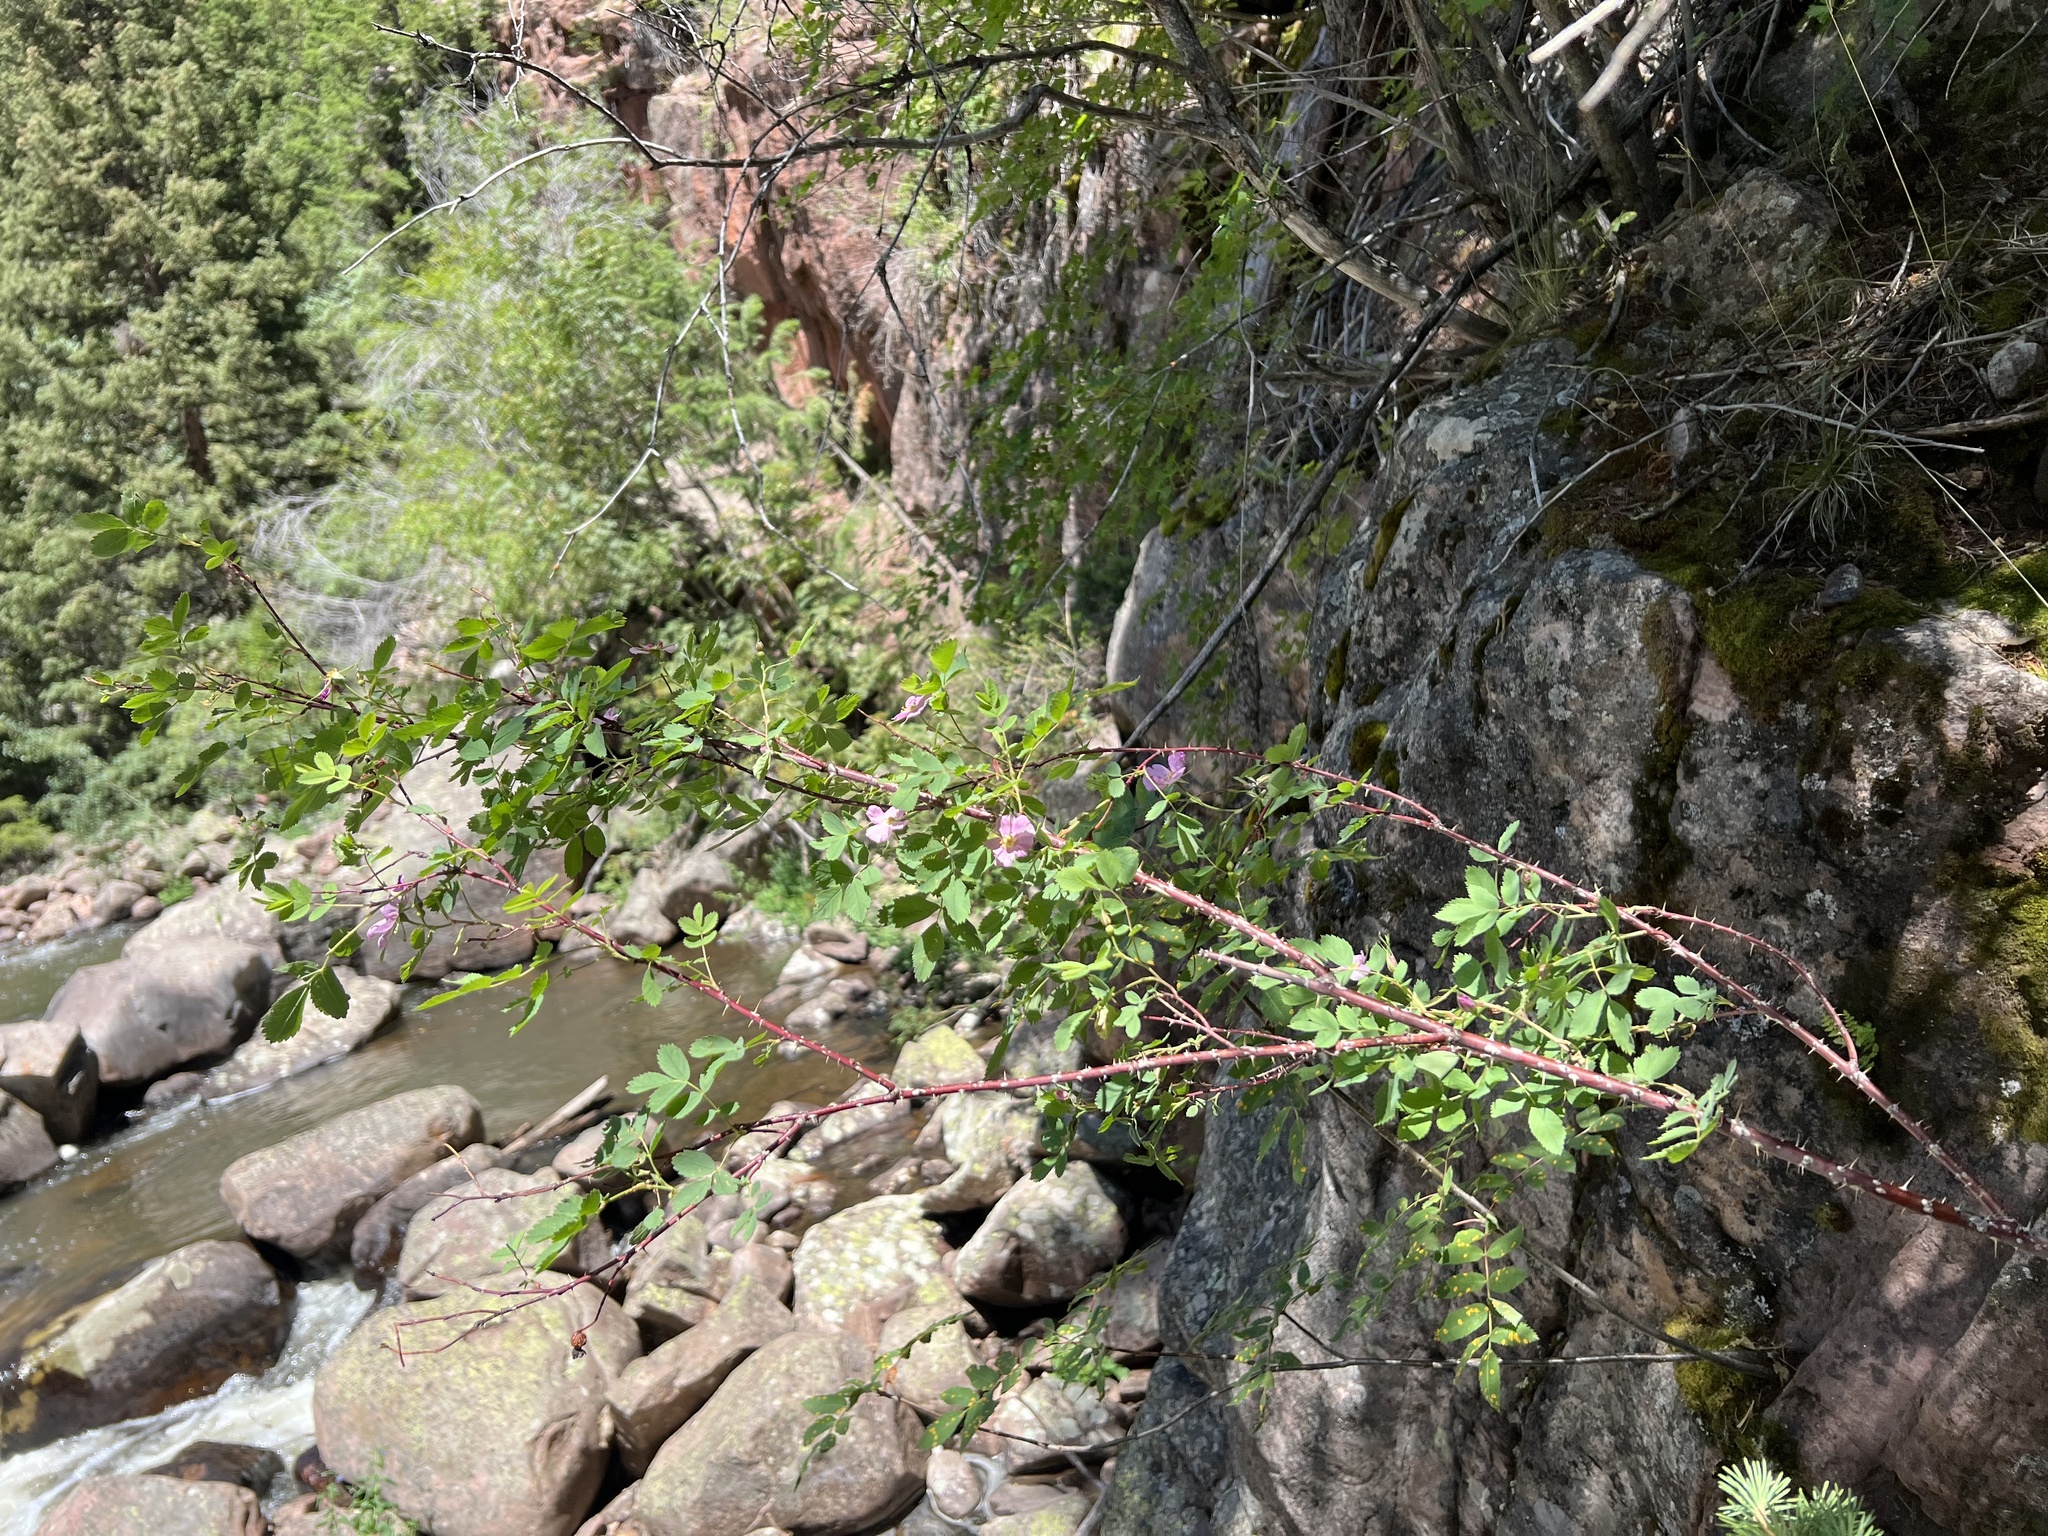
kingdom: Plantae
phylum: Tracheophyta
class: Magnoliopsida
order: Rosales
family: Rosaceae
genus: Rosa
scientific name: Rosa woodsii
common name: Woods's rose
